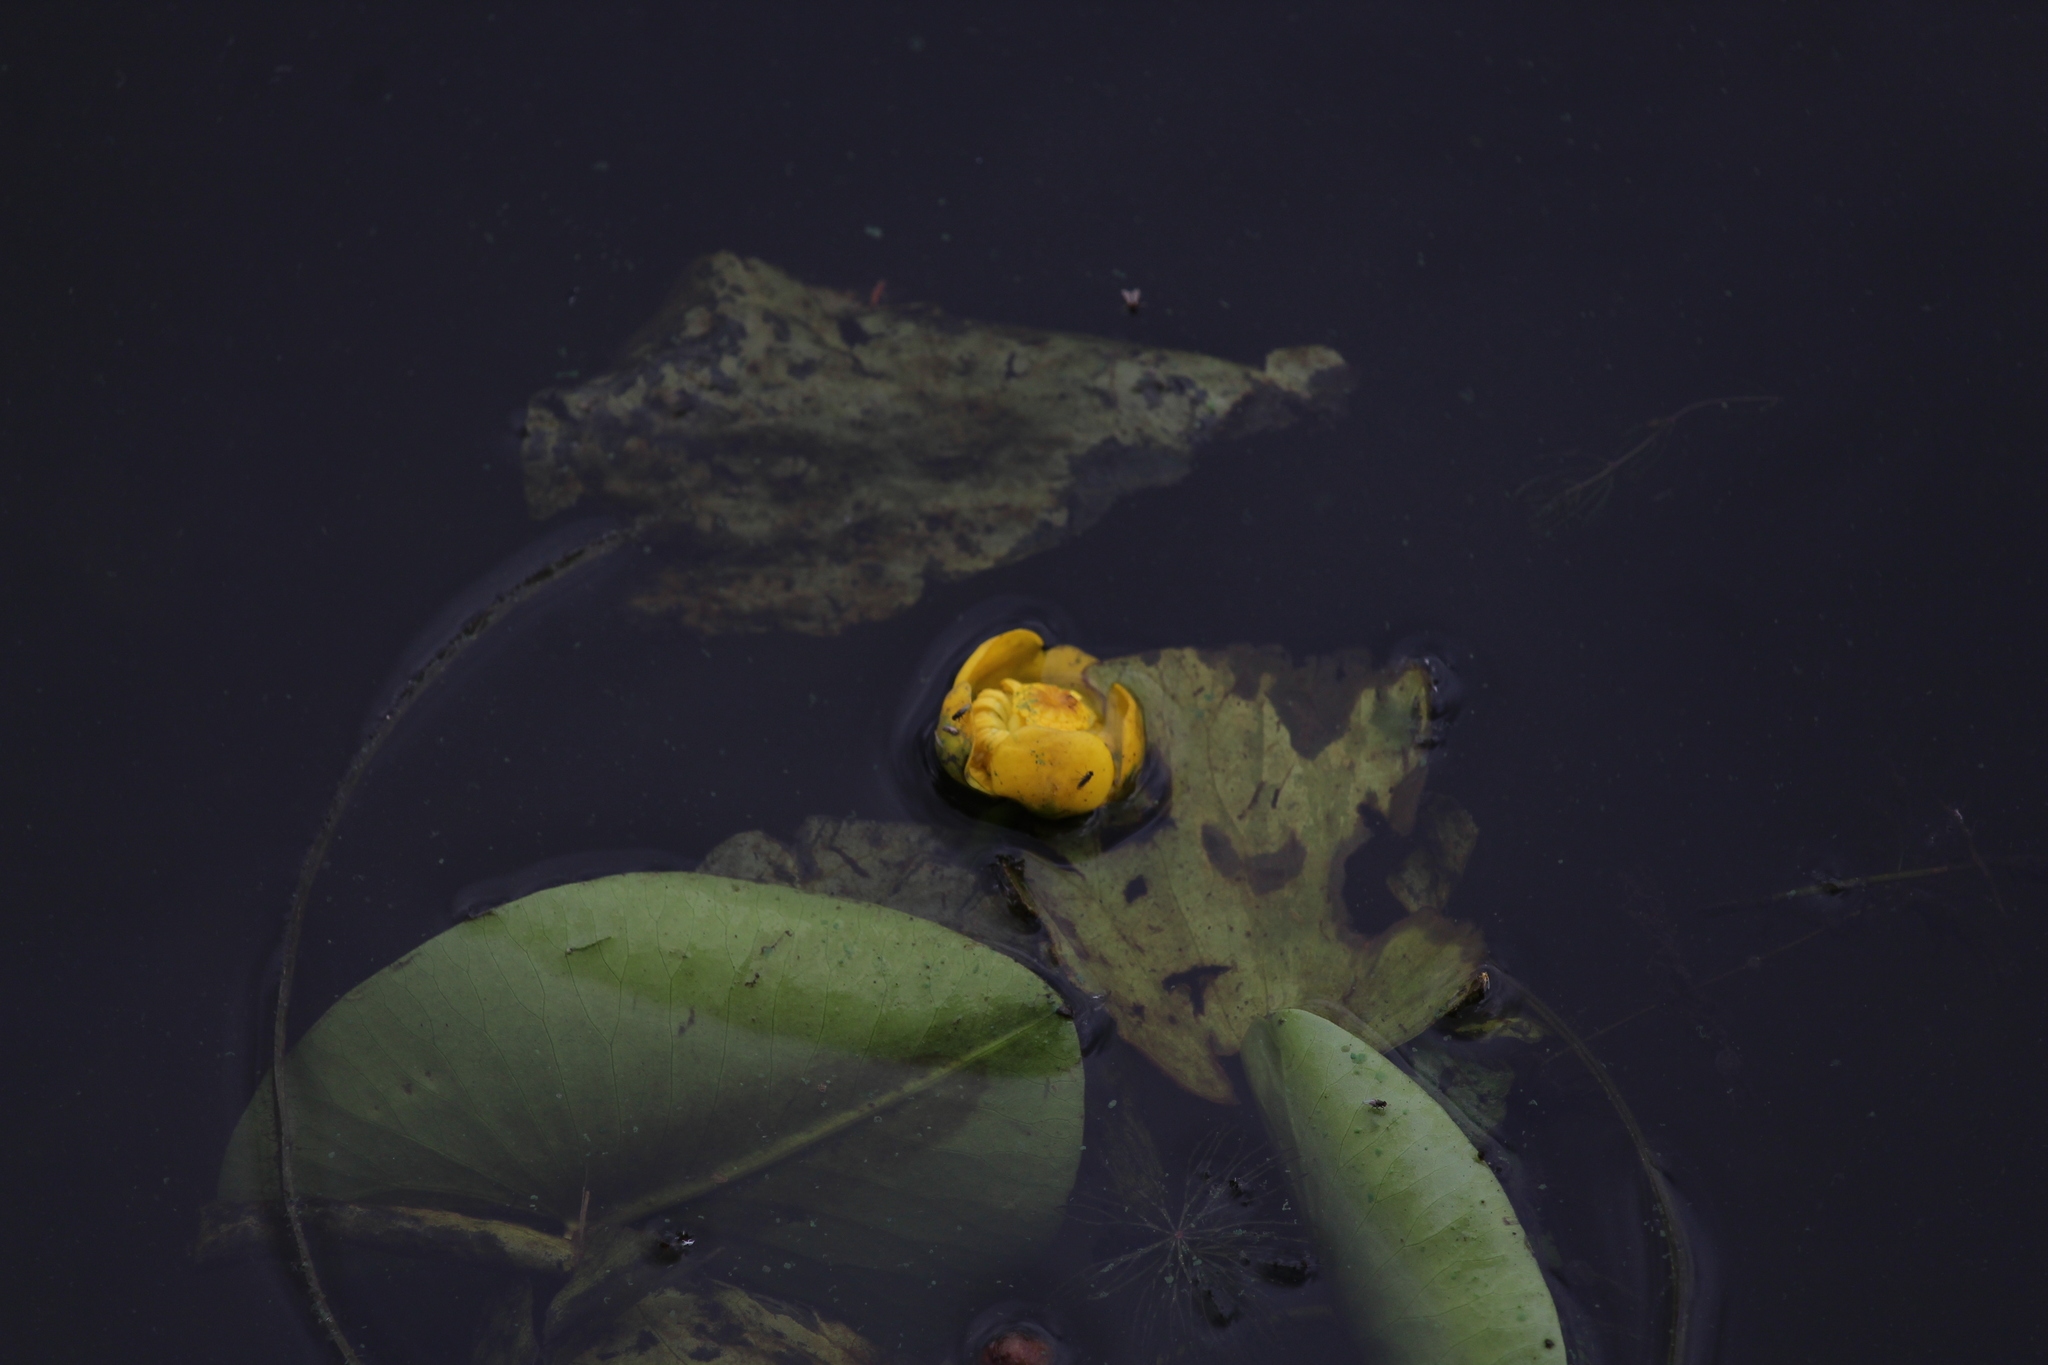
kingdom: Plantae
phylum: Tracheophyta
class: Magnoliopsida
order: Nymphaeales
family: Nymphaeaceae
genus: Nuphar
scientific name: Nuphar lutea
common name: Yellow water-lily
